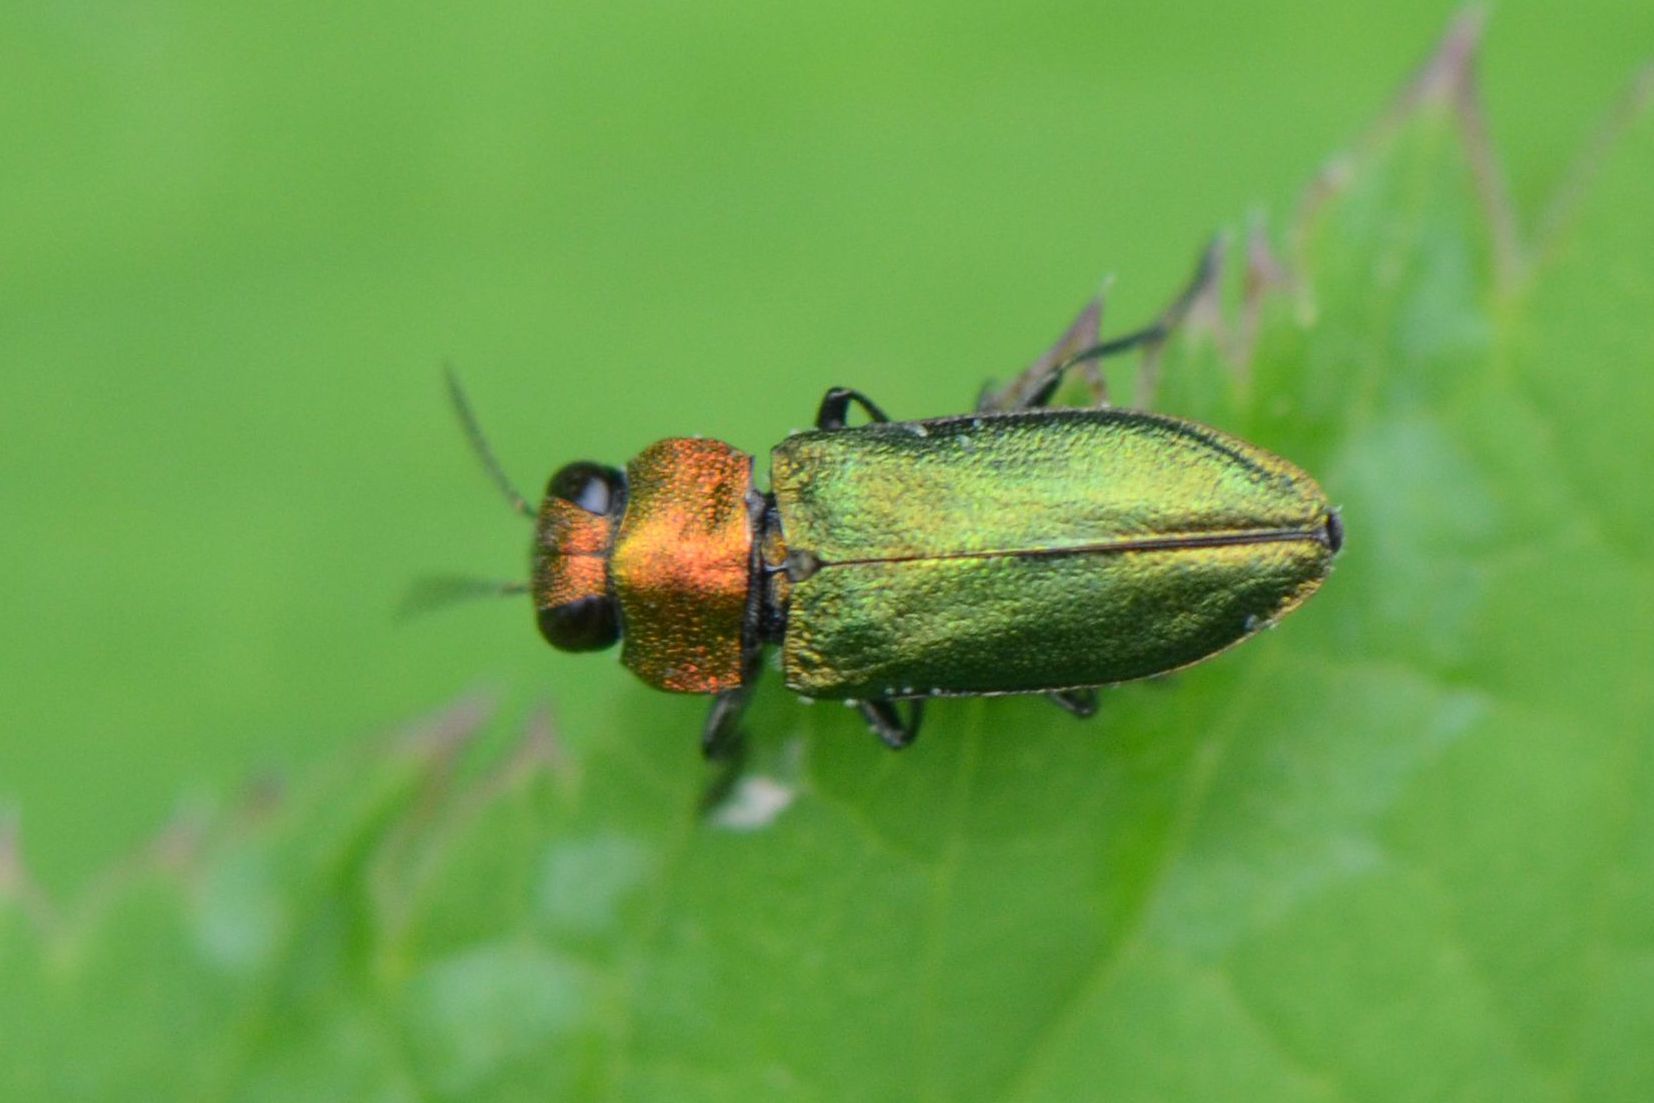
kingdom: Animalia
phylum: Arthropoda
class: Insecta
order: Coleoptera
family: Buprestidae
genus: Anthaxia
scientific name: Anthaxia nitidula
